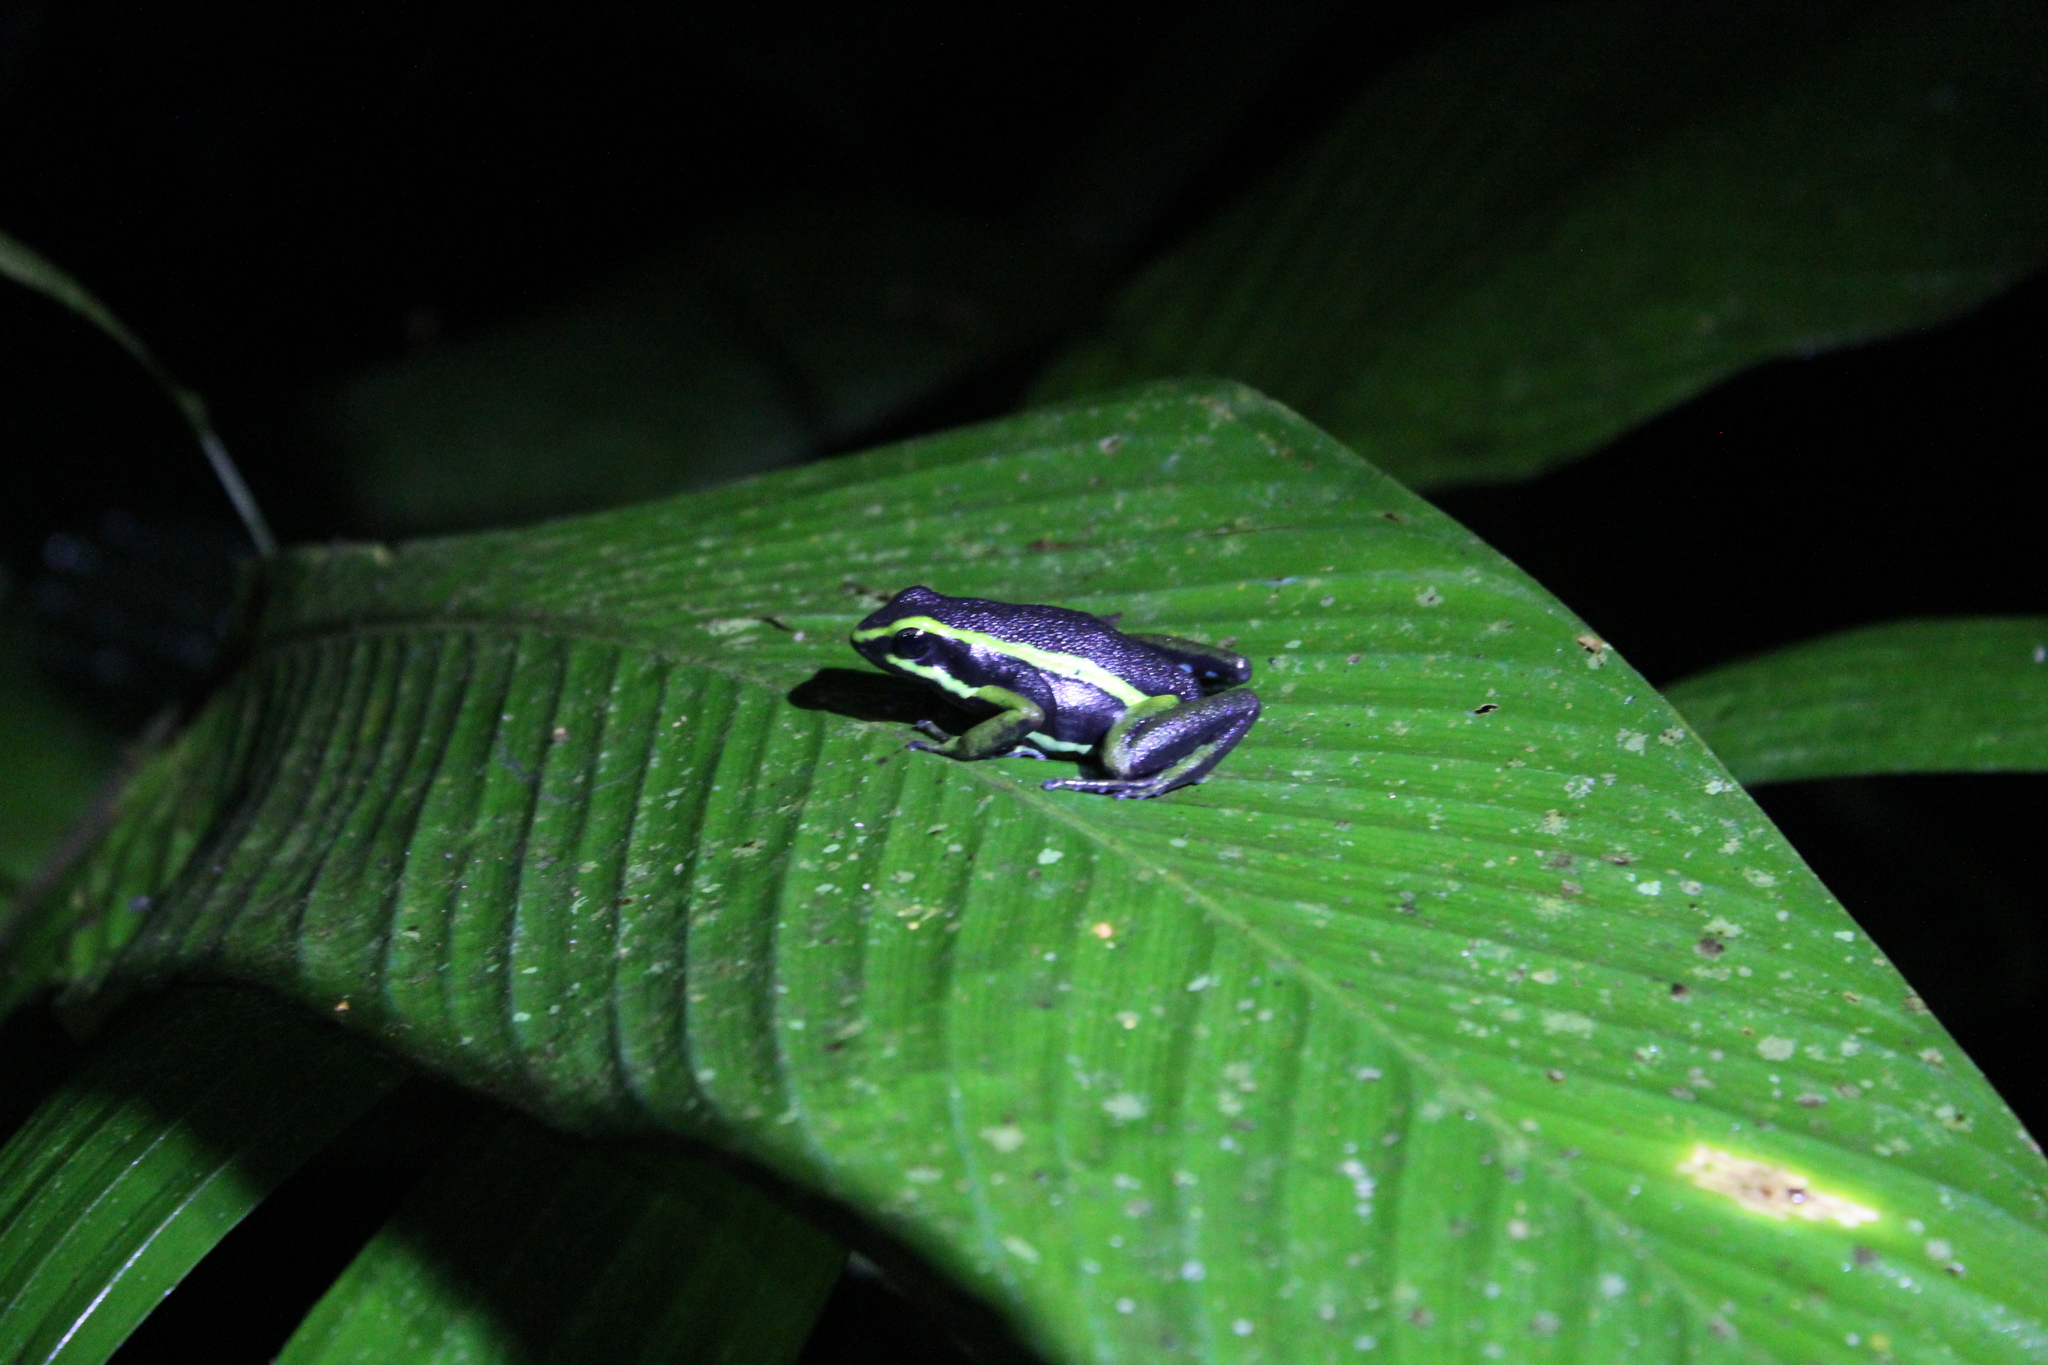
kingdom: Animalia
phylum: Chordata
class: Amphibia
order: Anura
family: Dendrobatidae
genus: Ameerega
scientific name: Ameerega trivittata
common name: Three-striped arrow-poison frog
